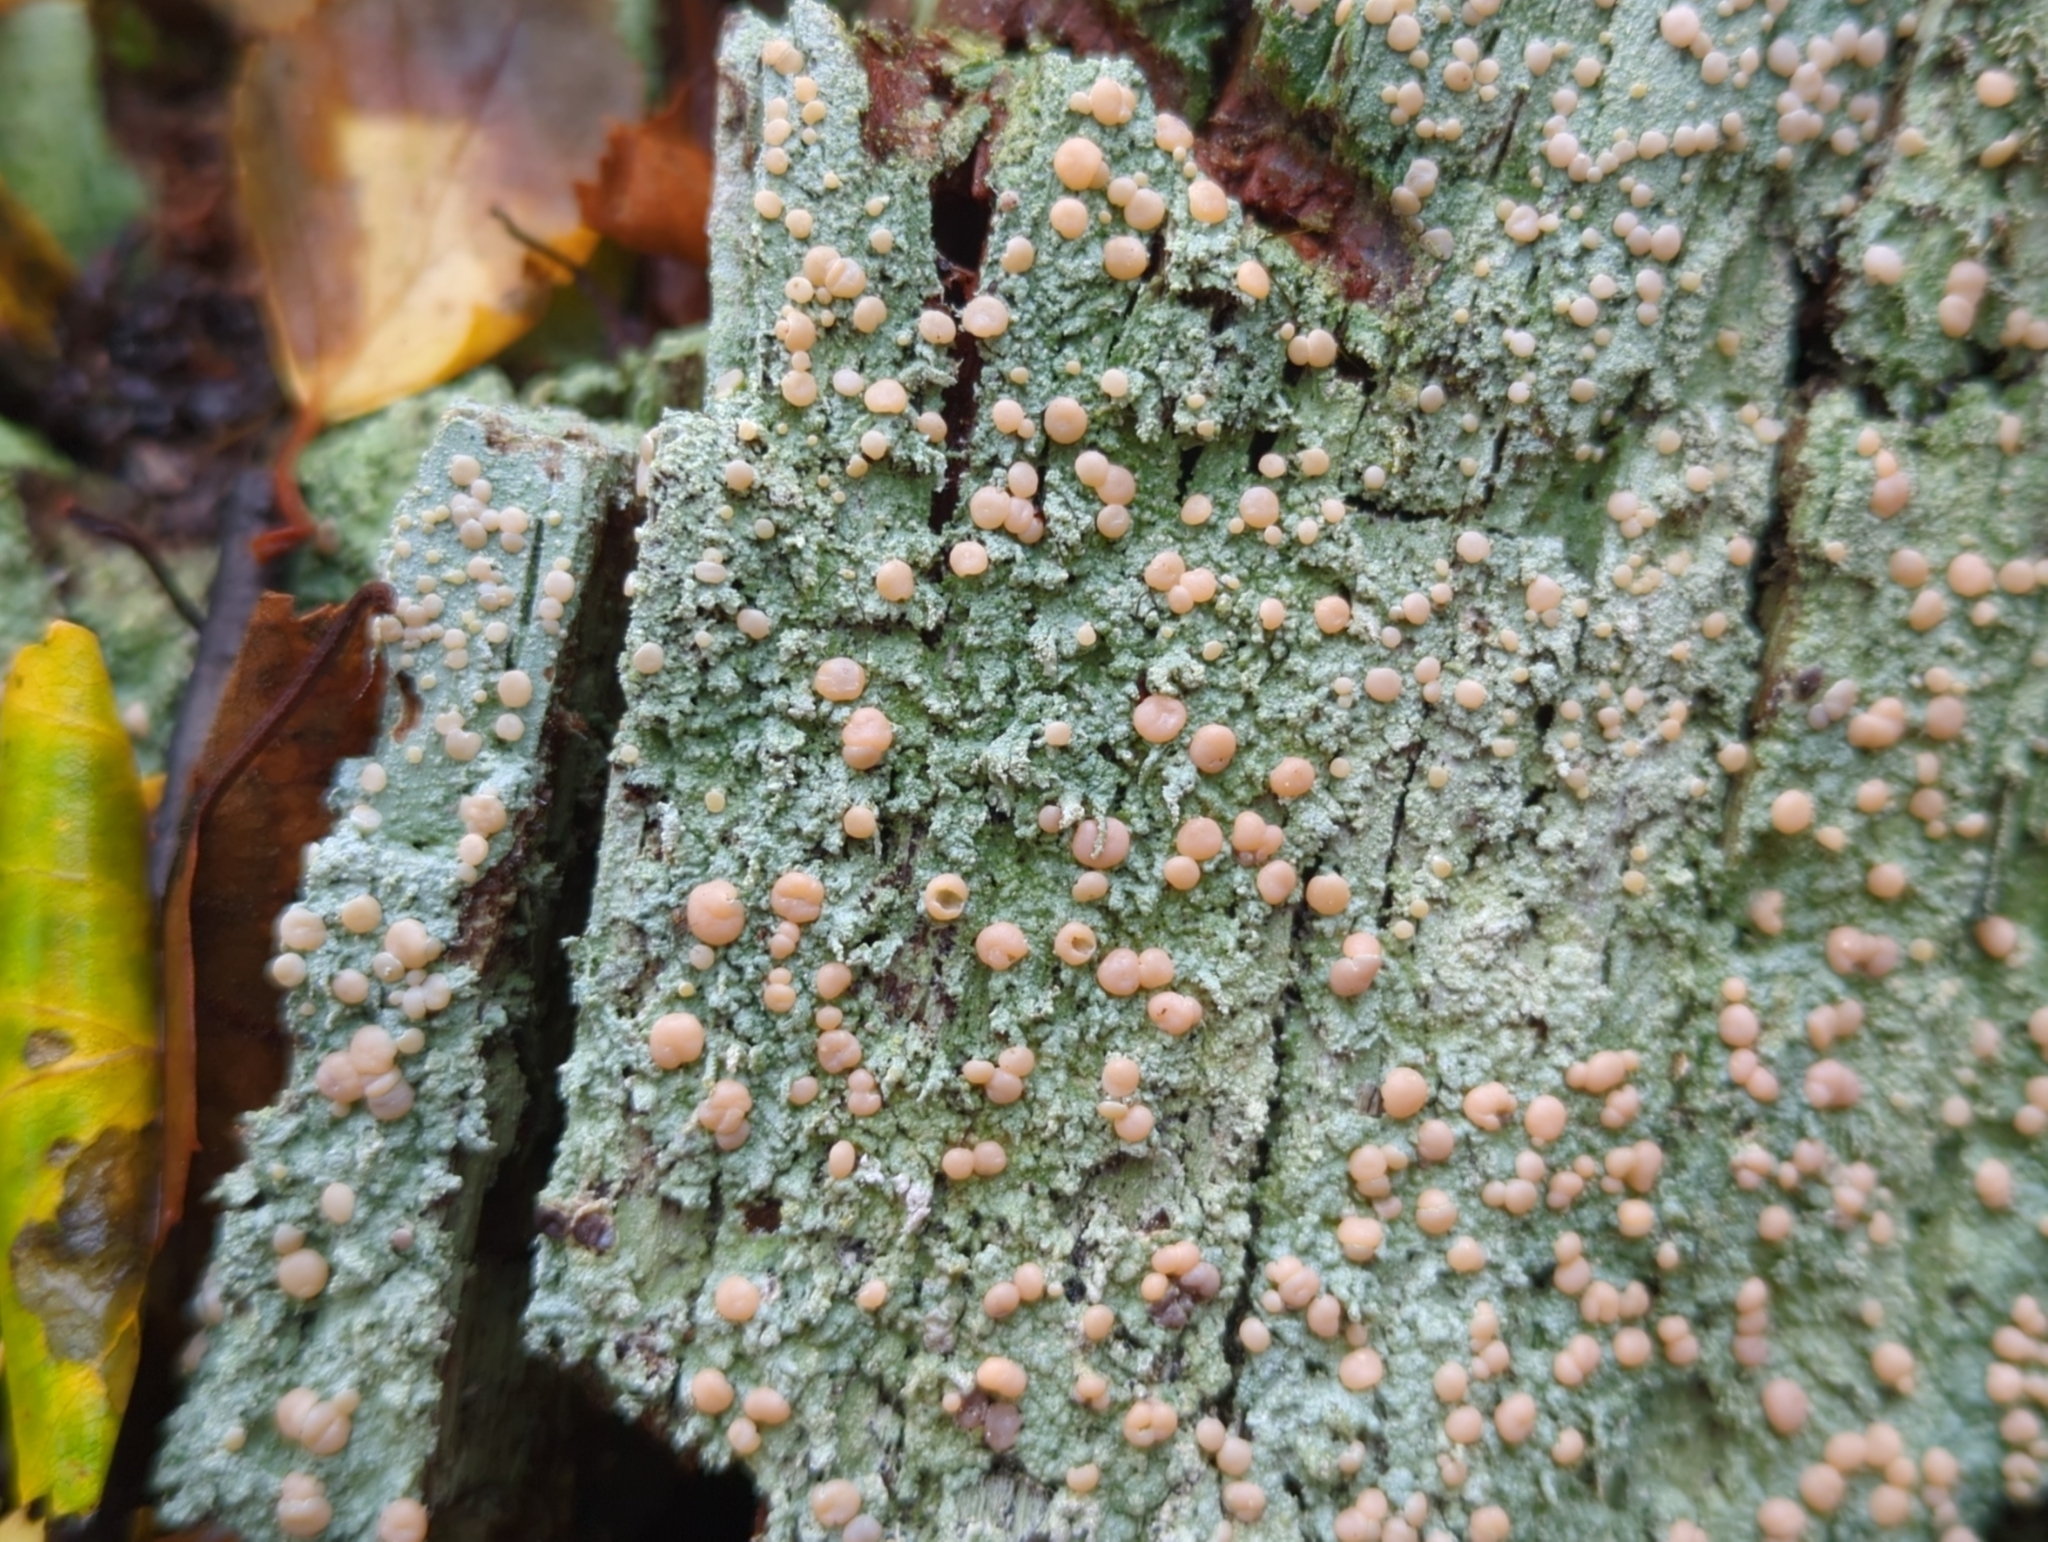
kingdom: Fungi
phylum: Ascomycota
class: Lecanoromycetes
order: Pertusariales
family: Icmadophilaceae
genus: Icmadophila
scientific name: Icmadophila ericetorum
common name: Candy lichen
